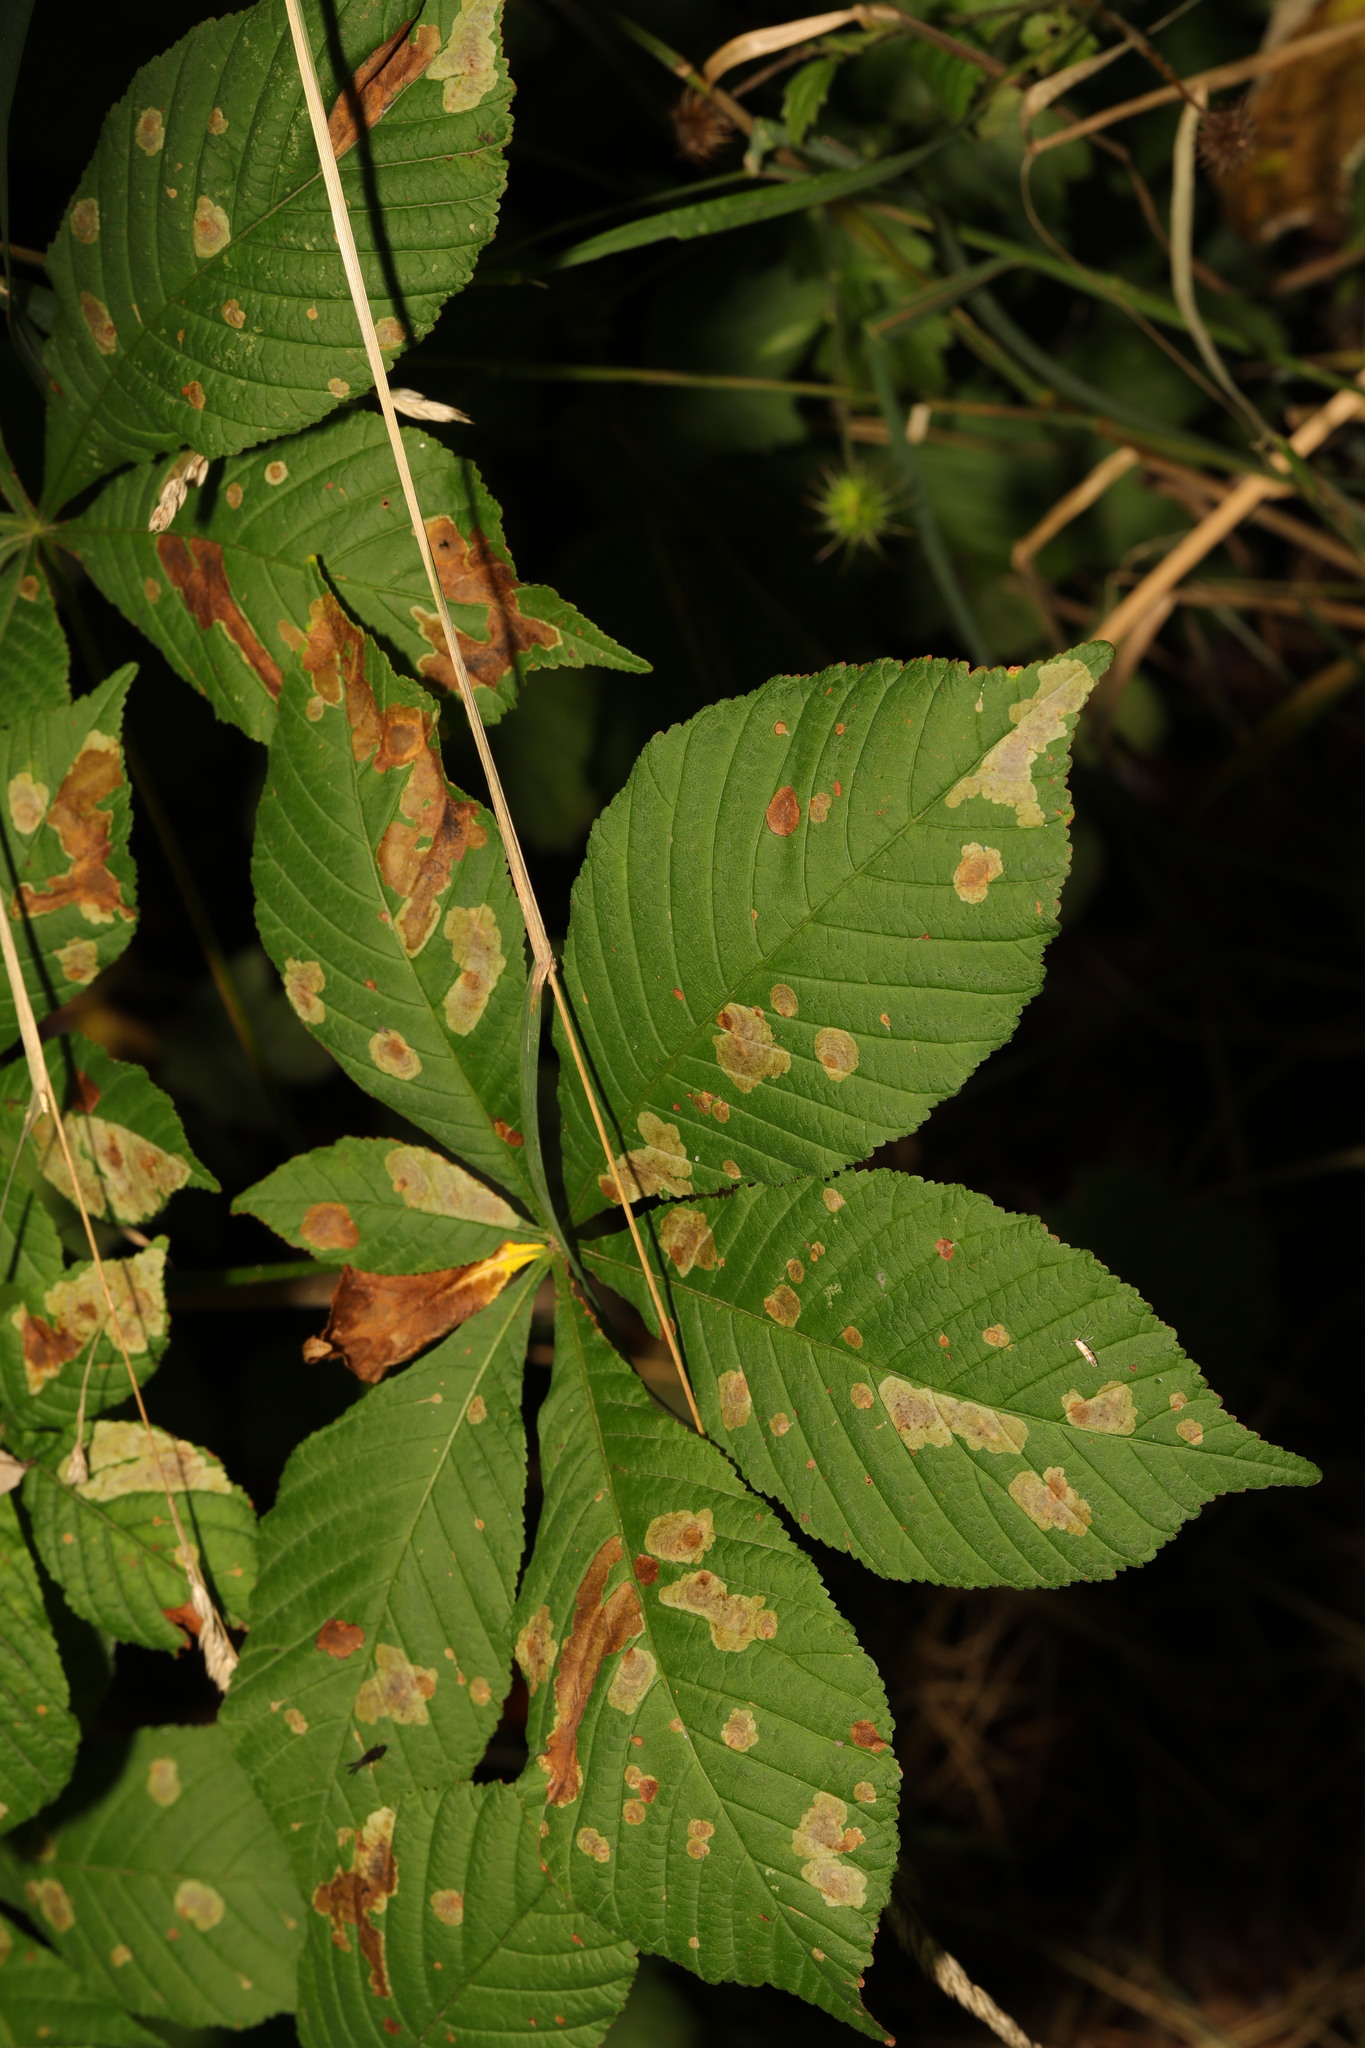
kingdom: Animalia
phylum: Arthropoda
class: Insecta
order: Lepidoptera
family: Gracillariidae
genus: Cameraria
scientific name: Cameraria ohridella
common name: Horse-chestnut leaf-miner
